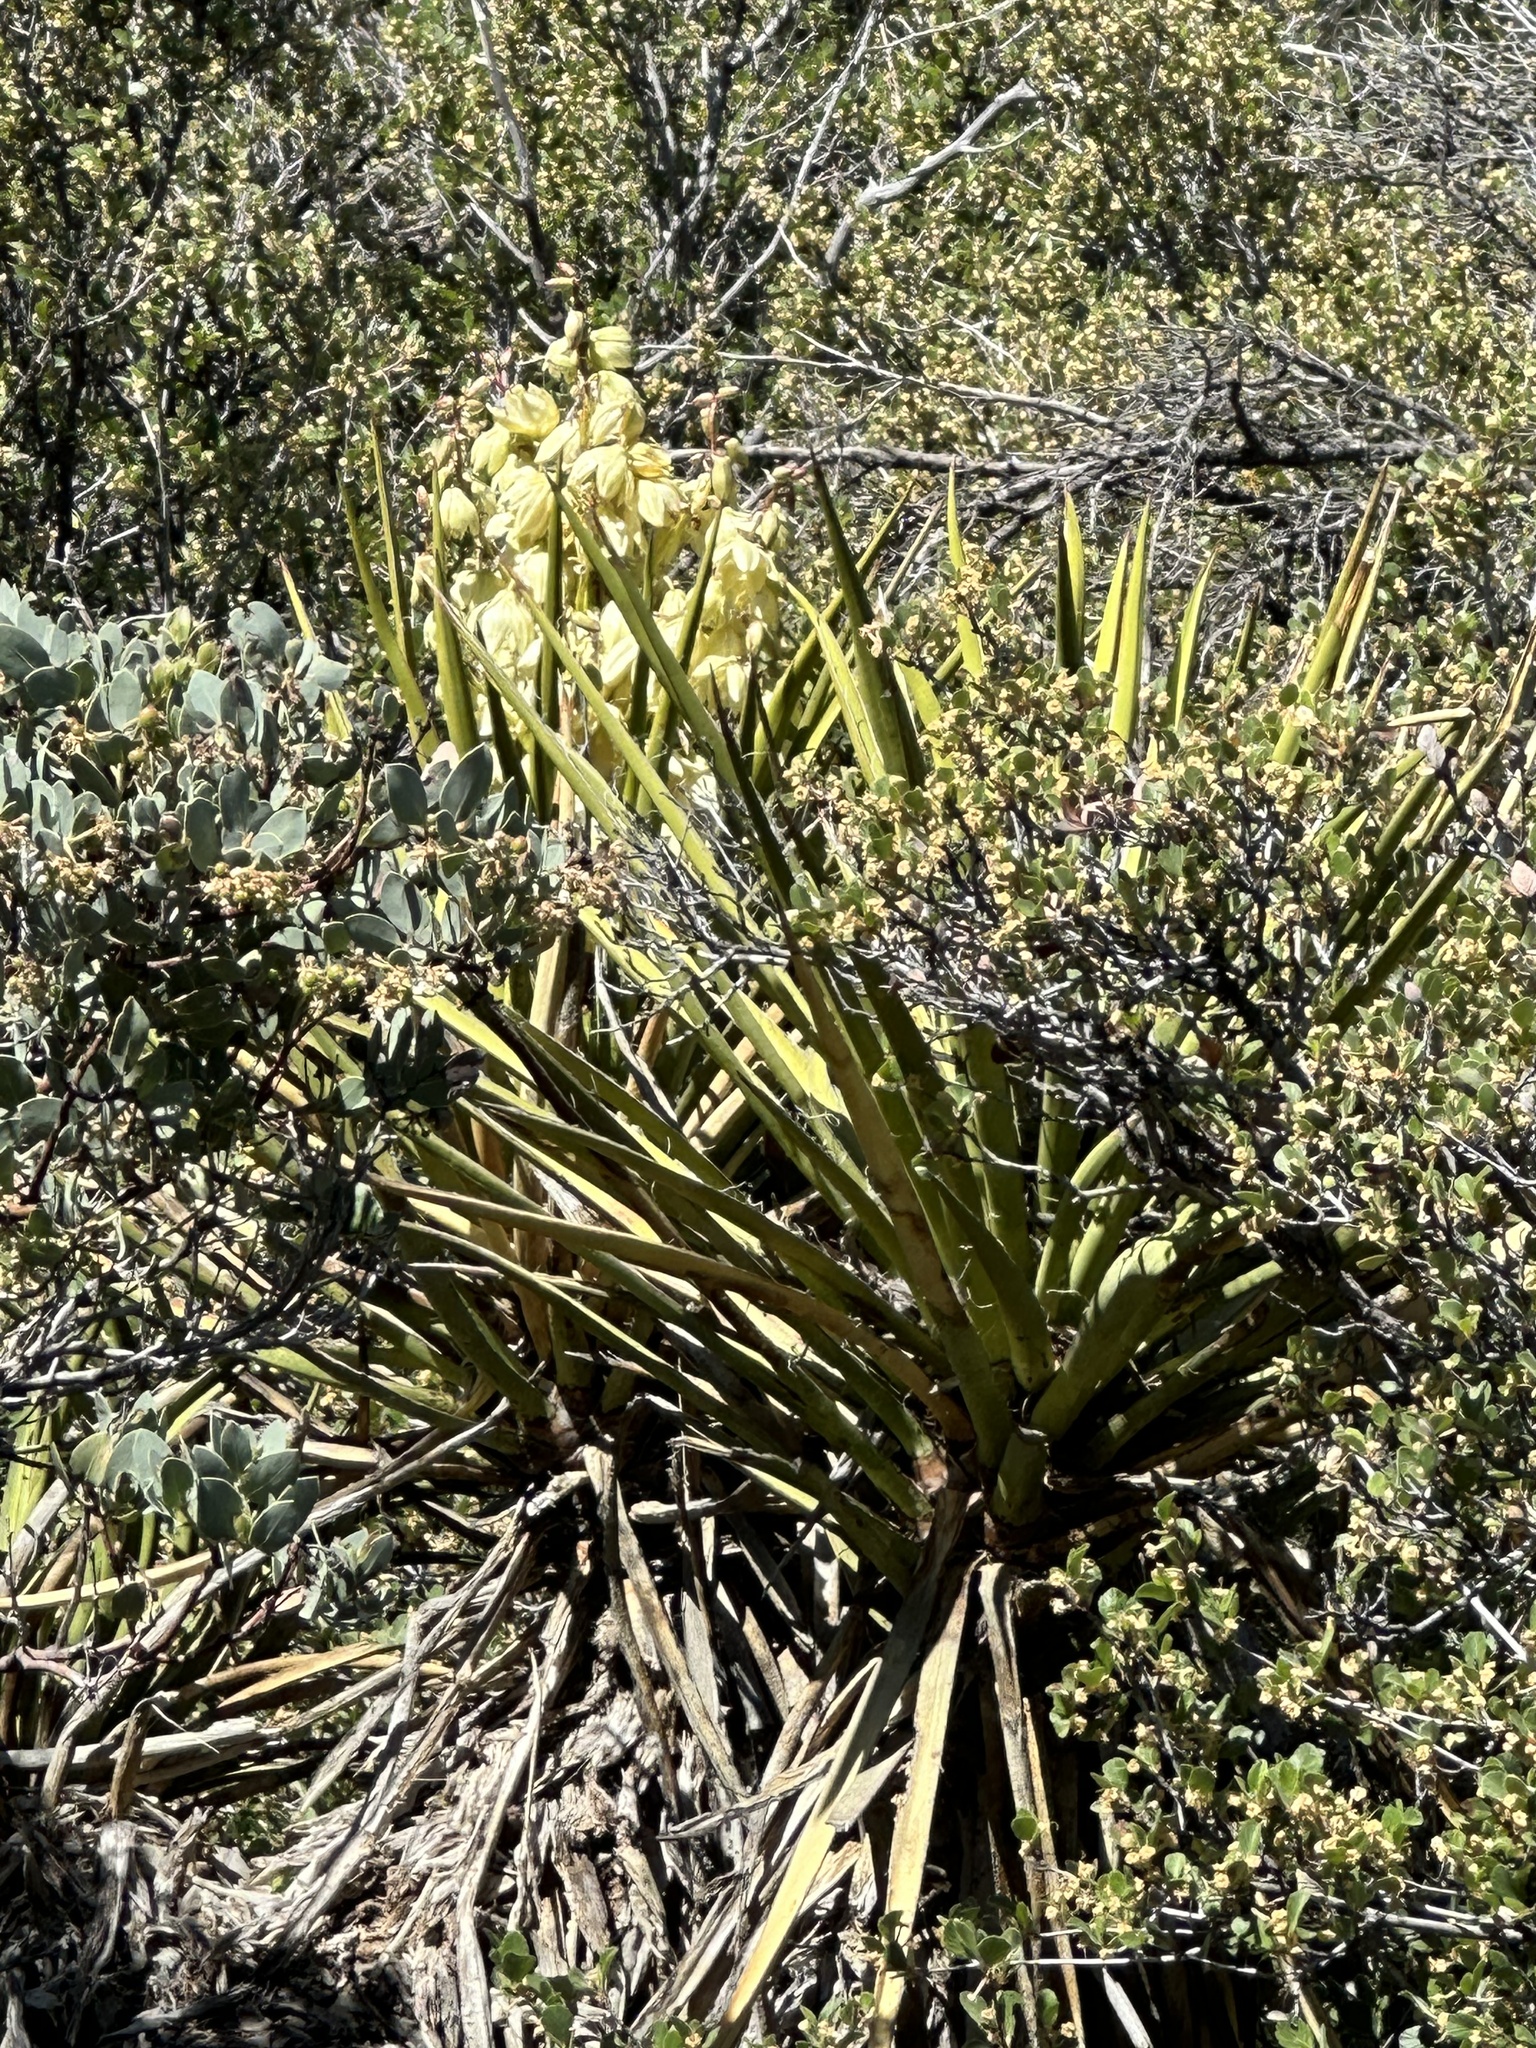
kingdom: Plantae
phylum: Tracheophyta
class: Liliopsida
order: Asparagales
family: Asparagaceae
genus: Yucca
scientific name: Yucca schidigera
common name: Mojave yucca
